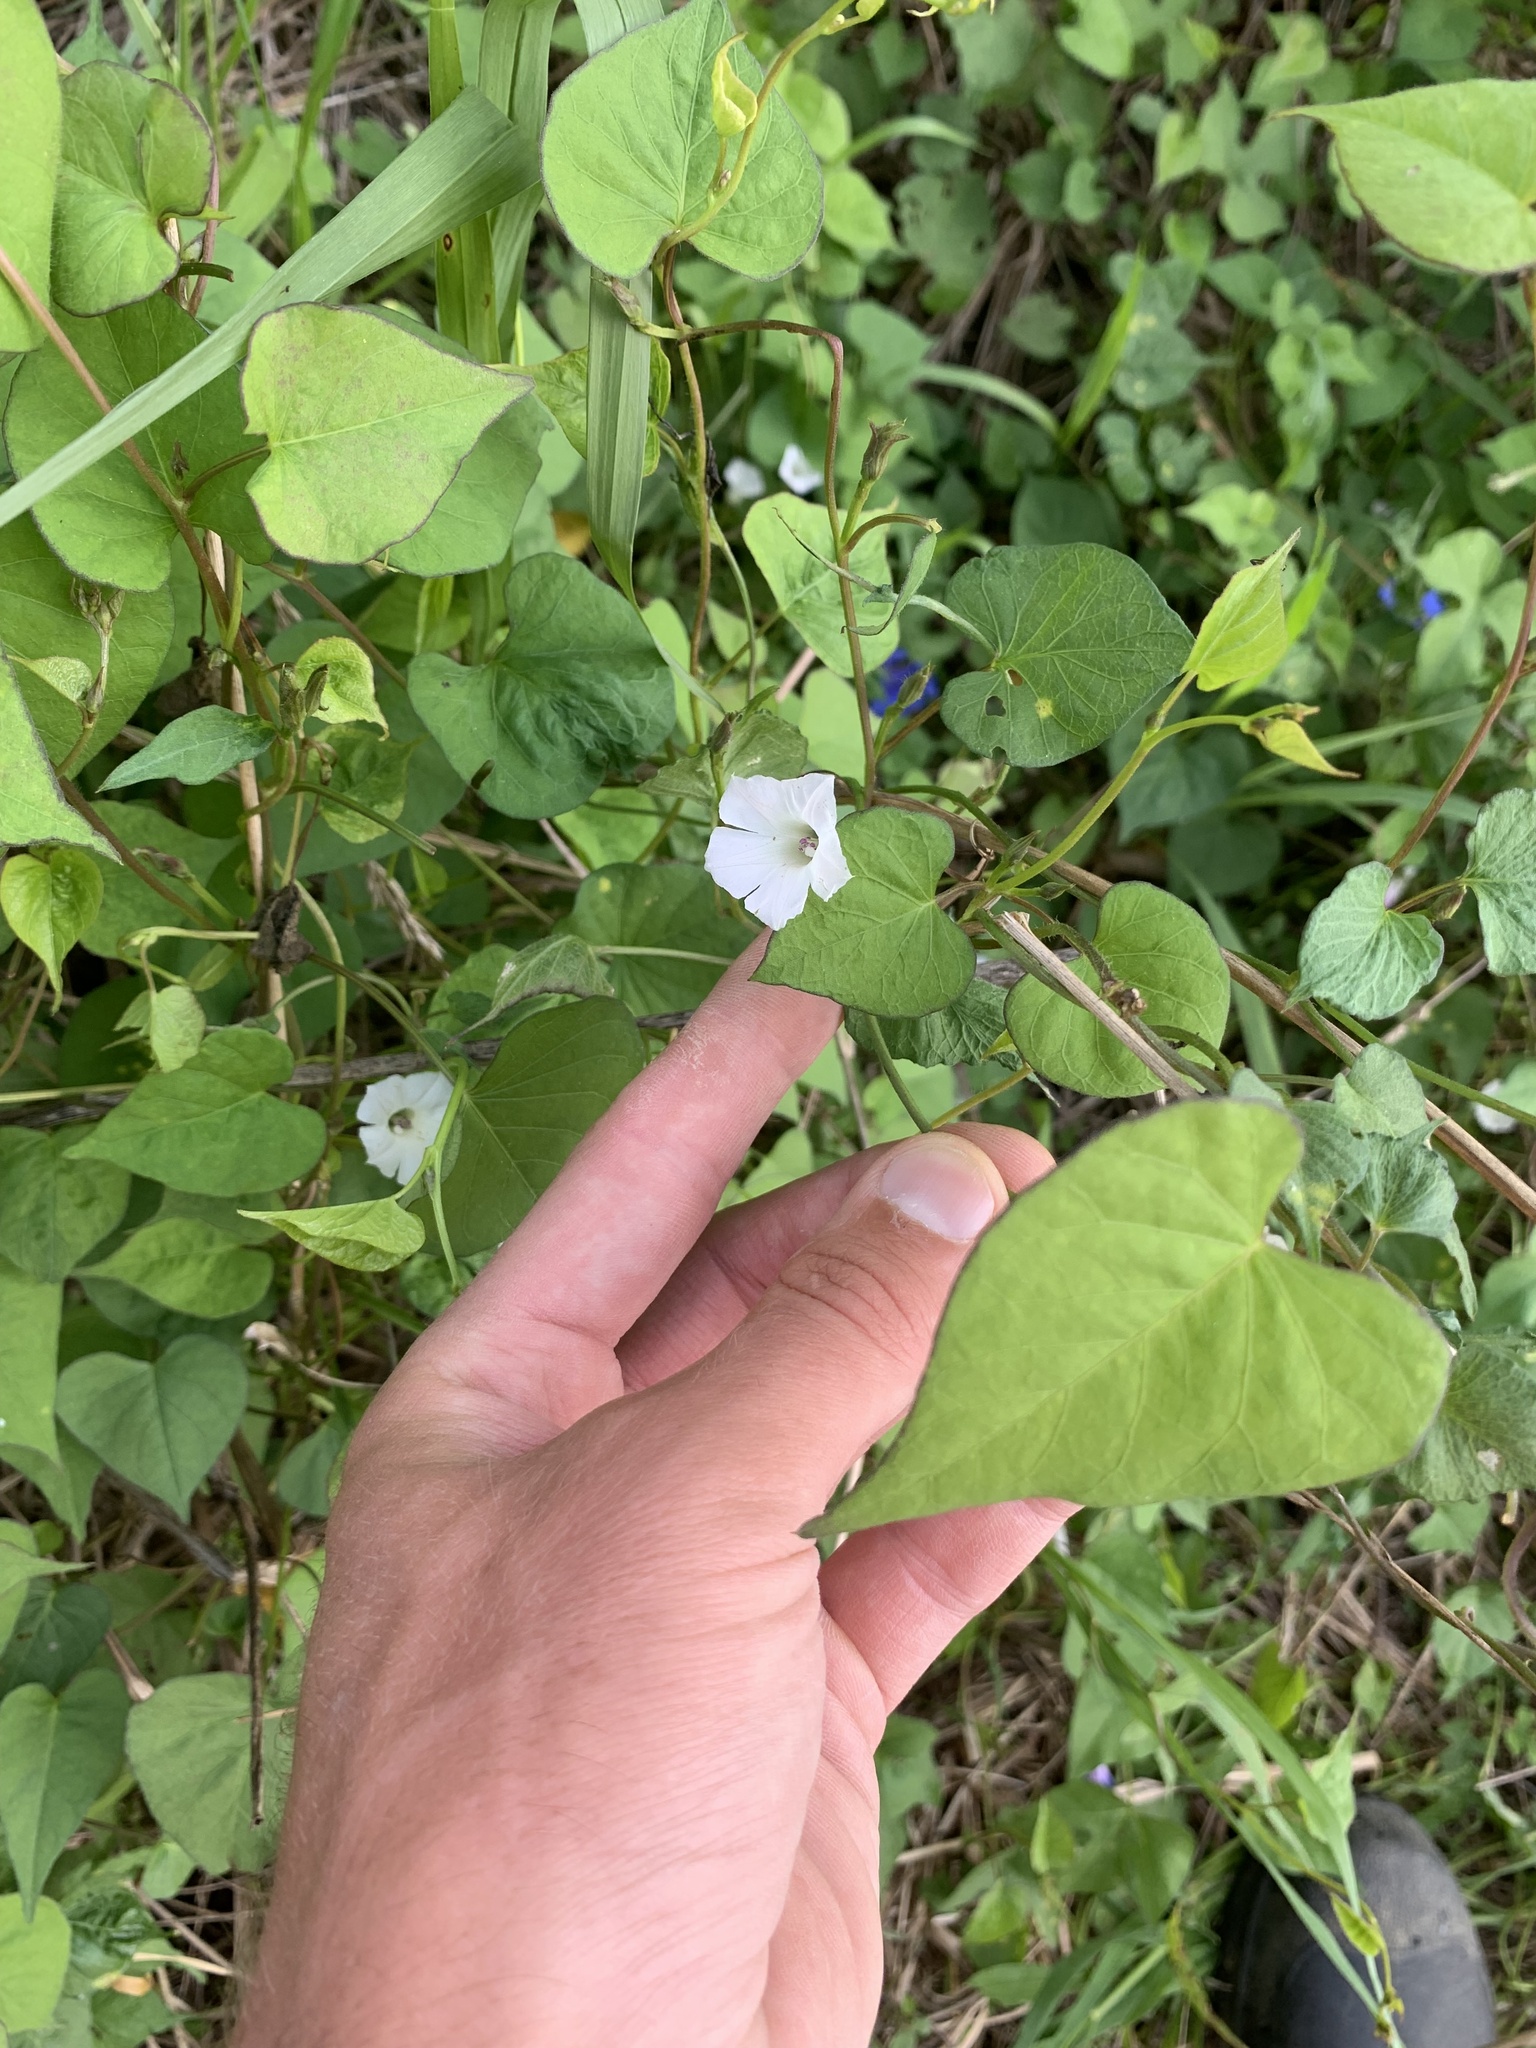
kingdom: Plantae
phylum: Tracheophyta
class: Magnoliopsida
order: Solanales
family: Convolvulaceae
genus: Ipomoea
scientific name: Ipomoea lacunosa
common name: White morning-glory
